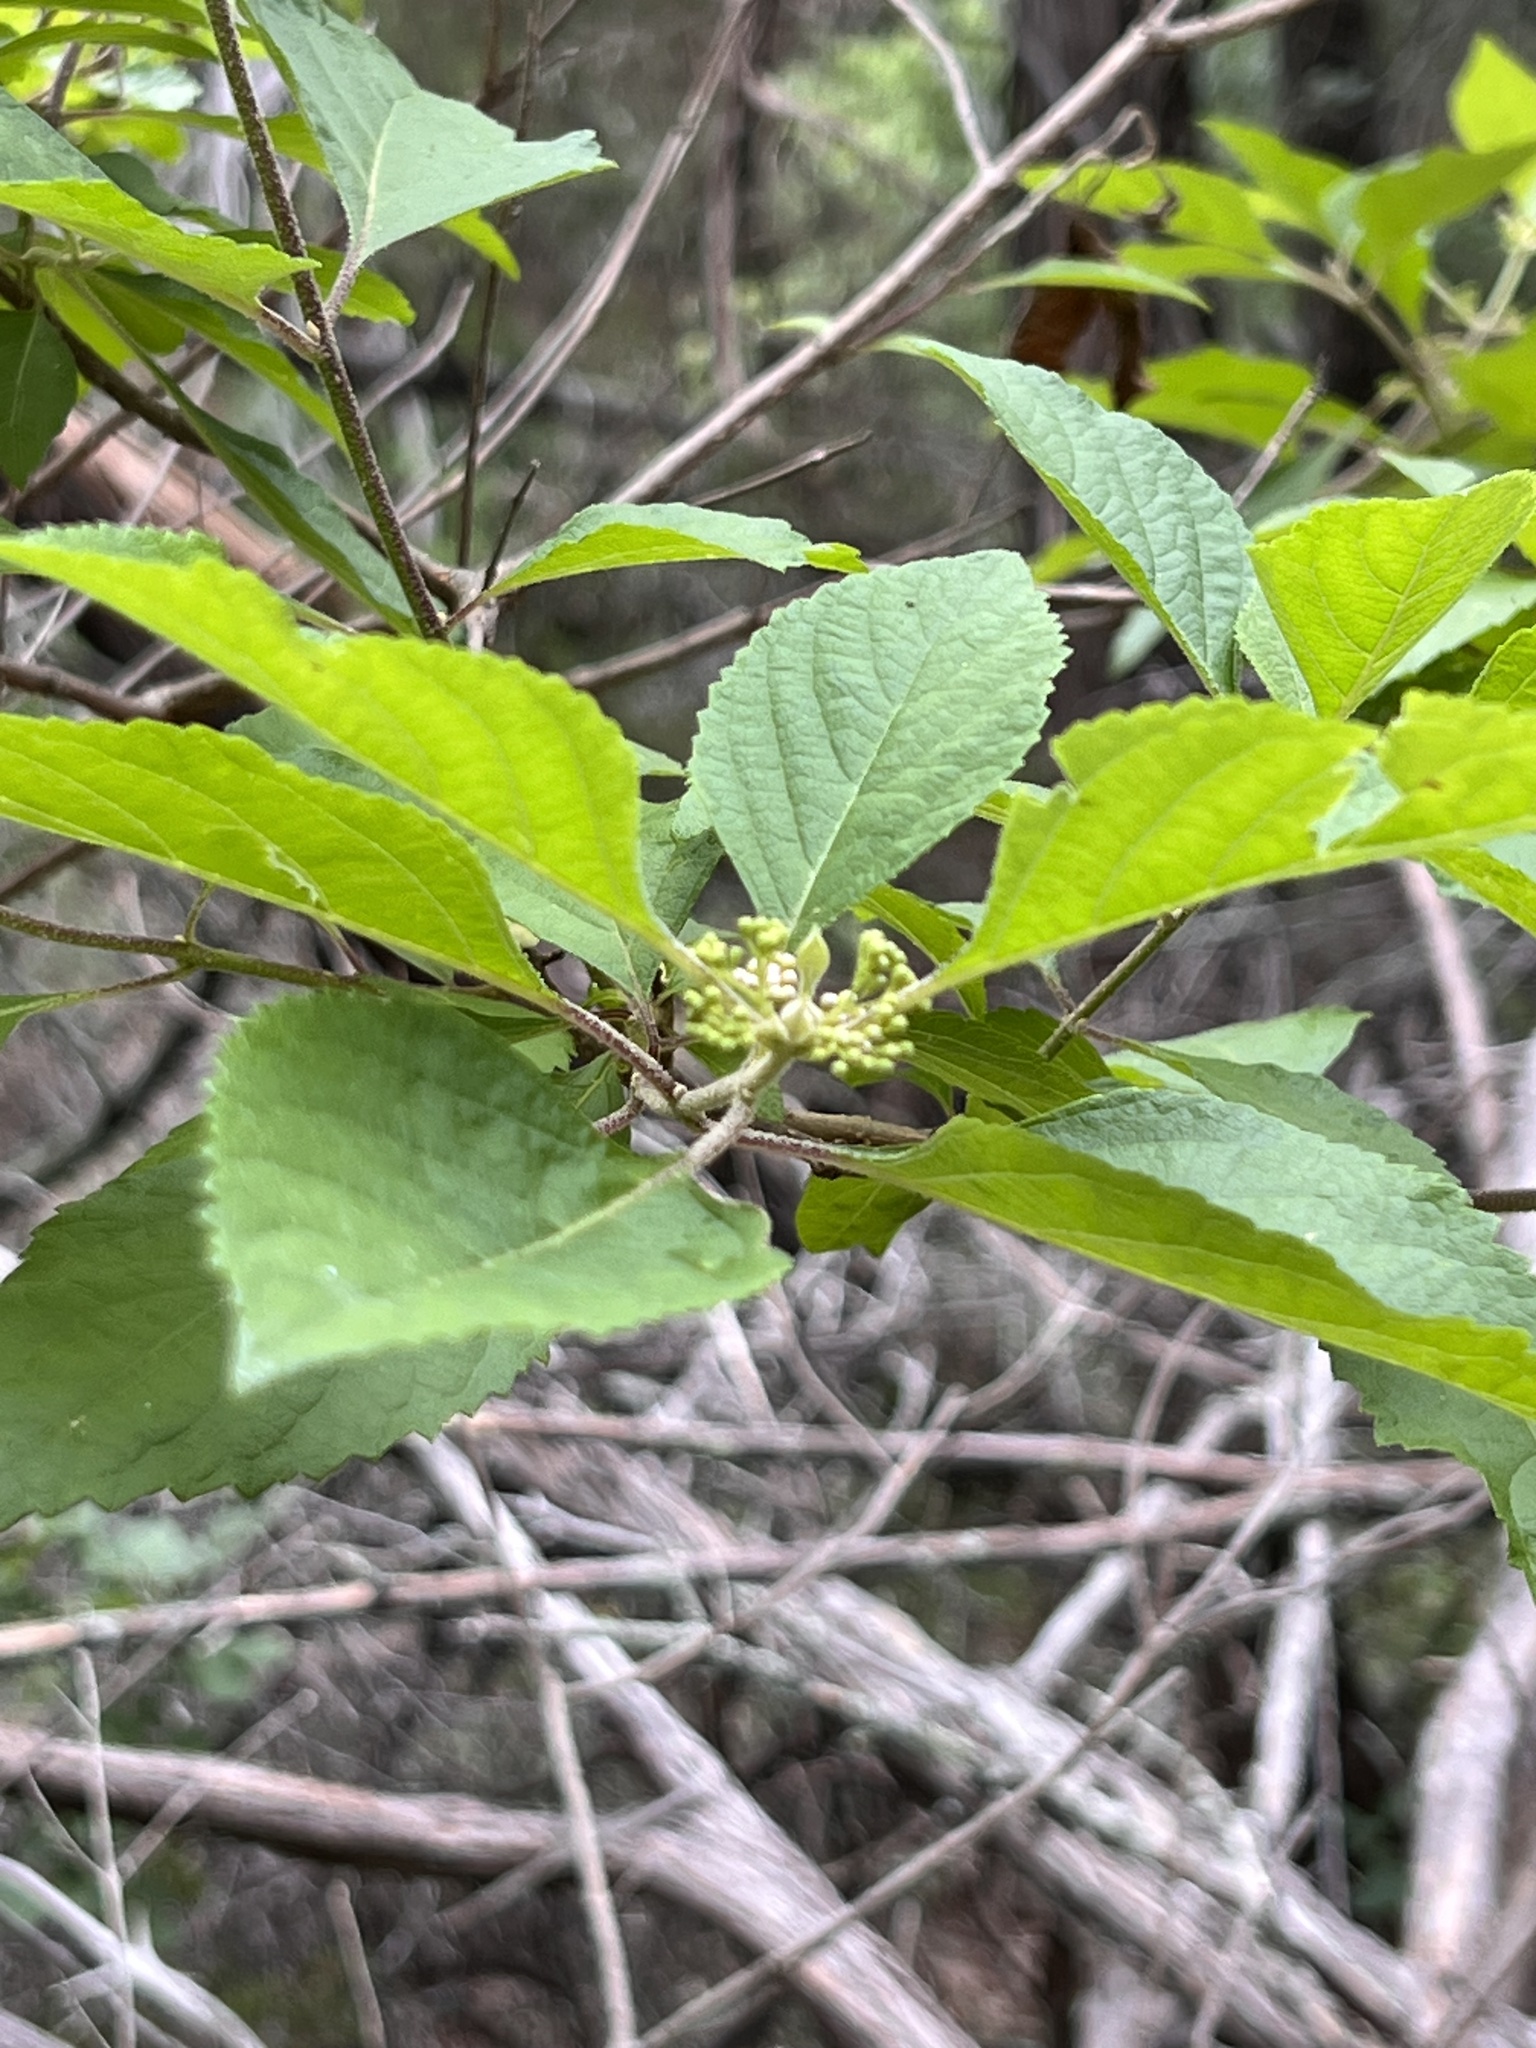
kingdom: Plantae
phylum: Tracheophyta
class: Magnoliopsida
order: Lamiales
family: Lamiaceae
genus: Callicarpa
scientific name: Callicarpa americana
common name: American beautyberry
